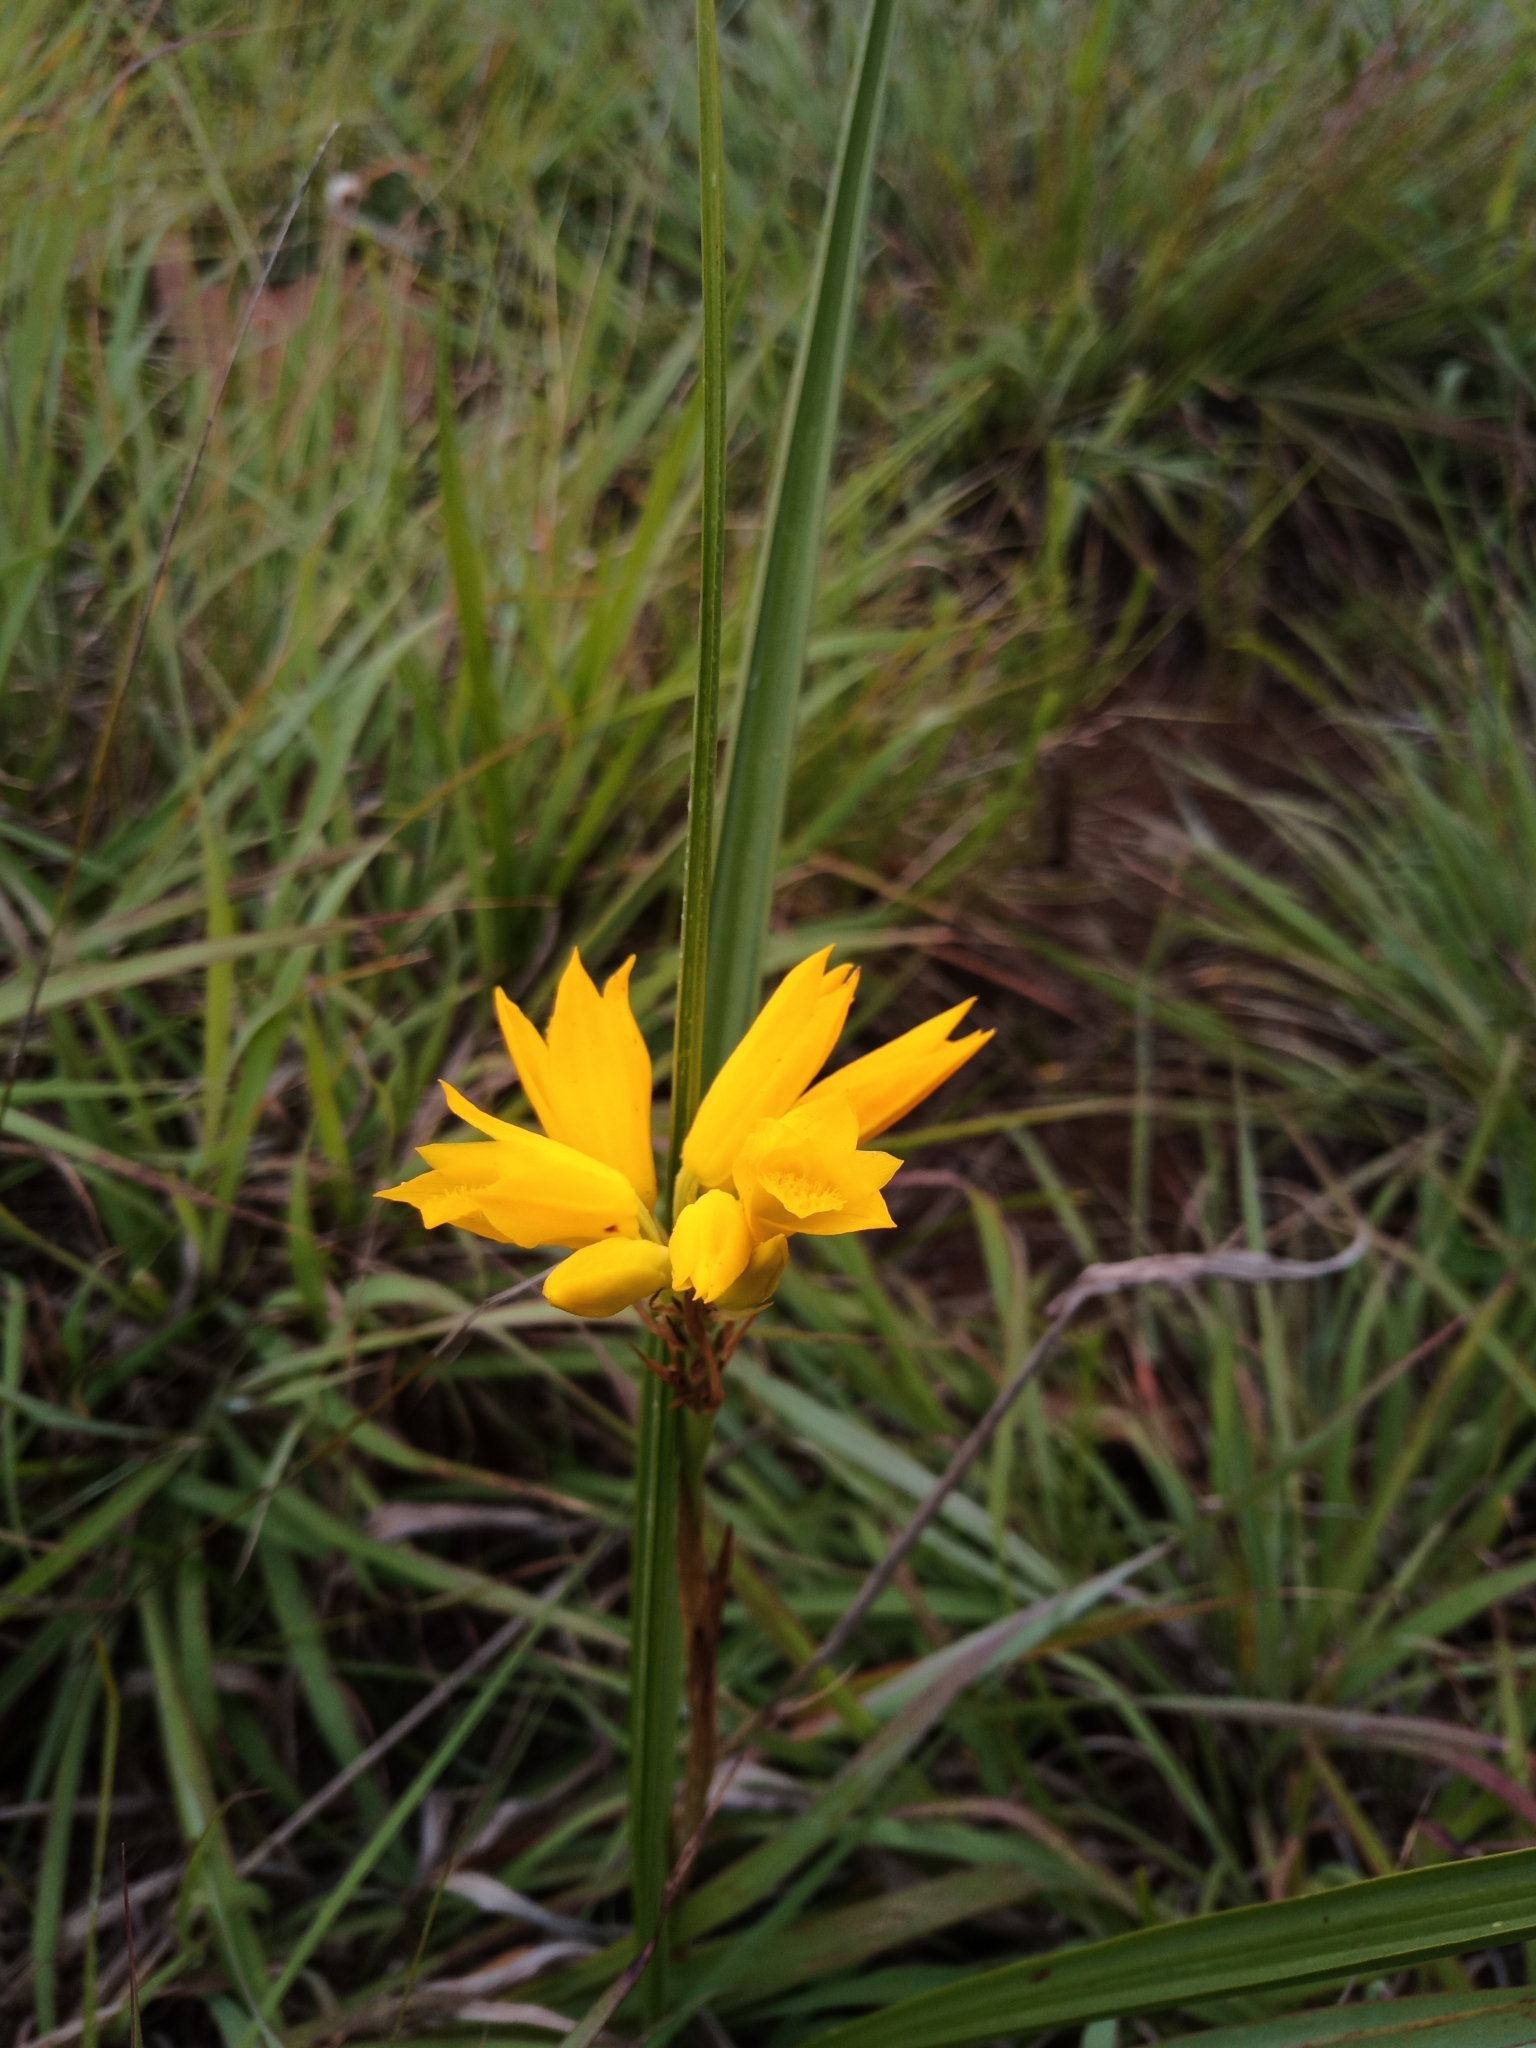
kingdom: Plantae
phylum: Tracheophyta
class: Liliopsida
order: Asparagales
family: Orchidaceae
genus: Eulophia
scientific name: Eulophia ensata
